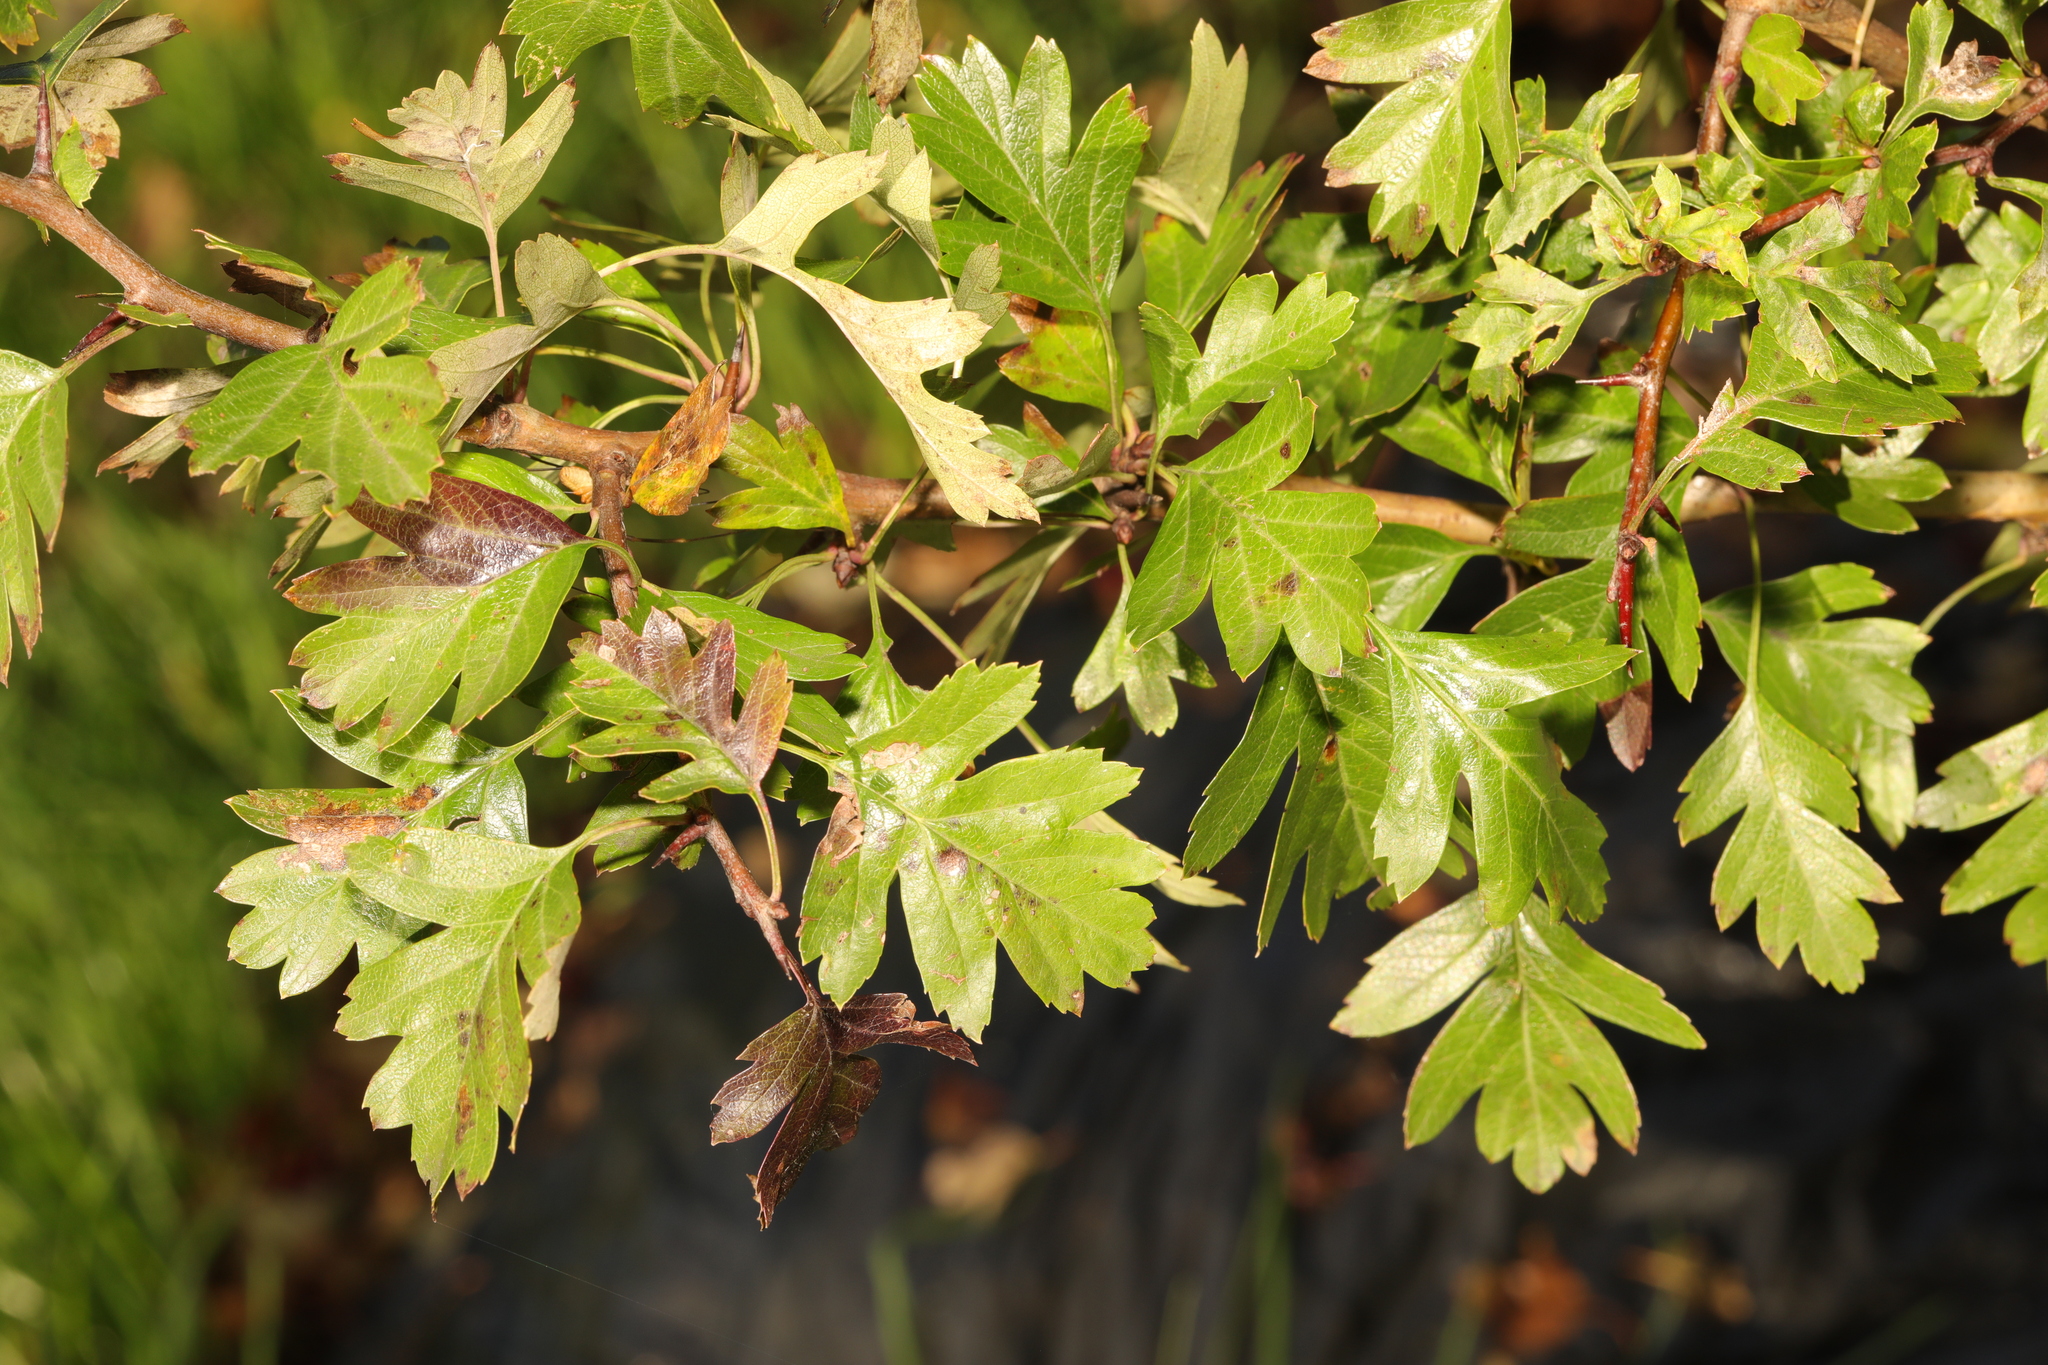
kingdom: Plantae
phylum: Tracheophyta
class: Magnoliopsida
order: Rosales
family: Rosaceae
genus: Crataegus
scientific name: Crataegus monogyna
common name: Hawthorn
